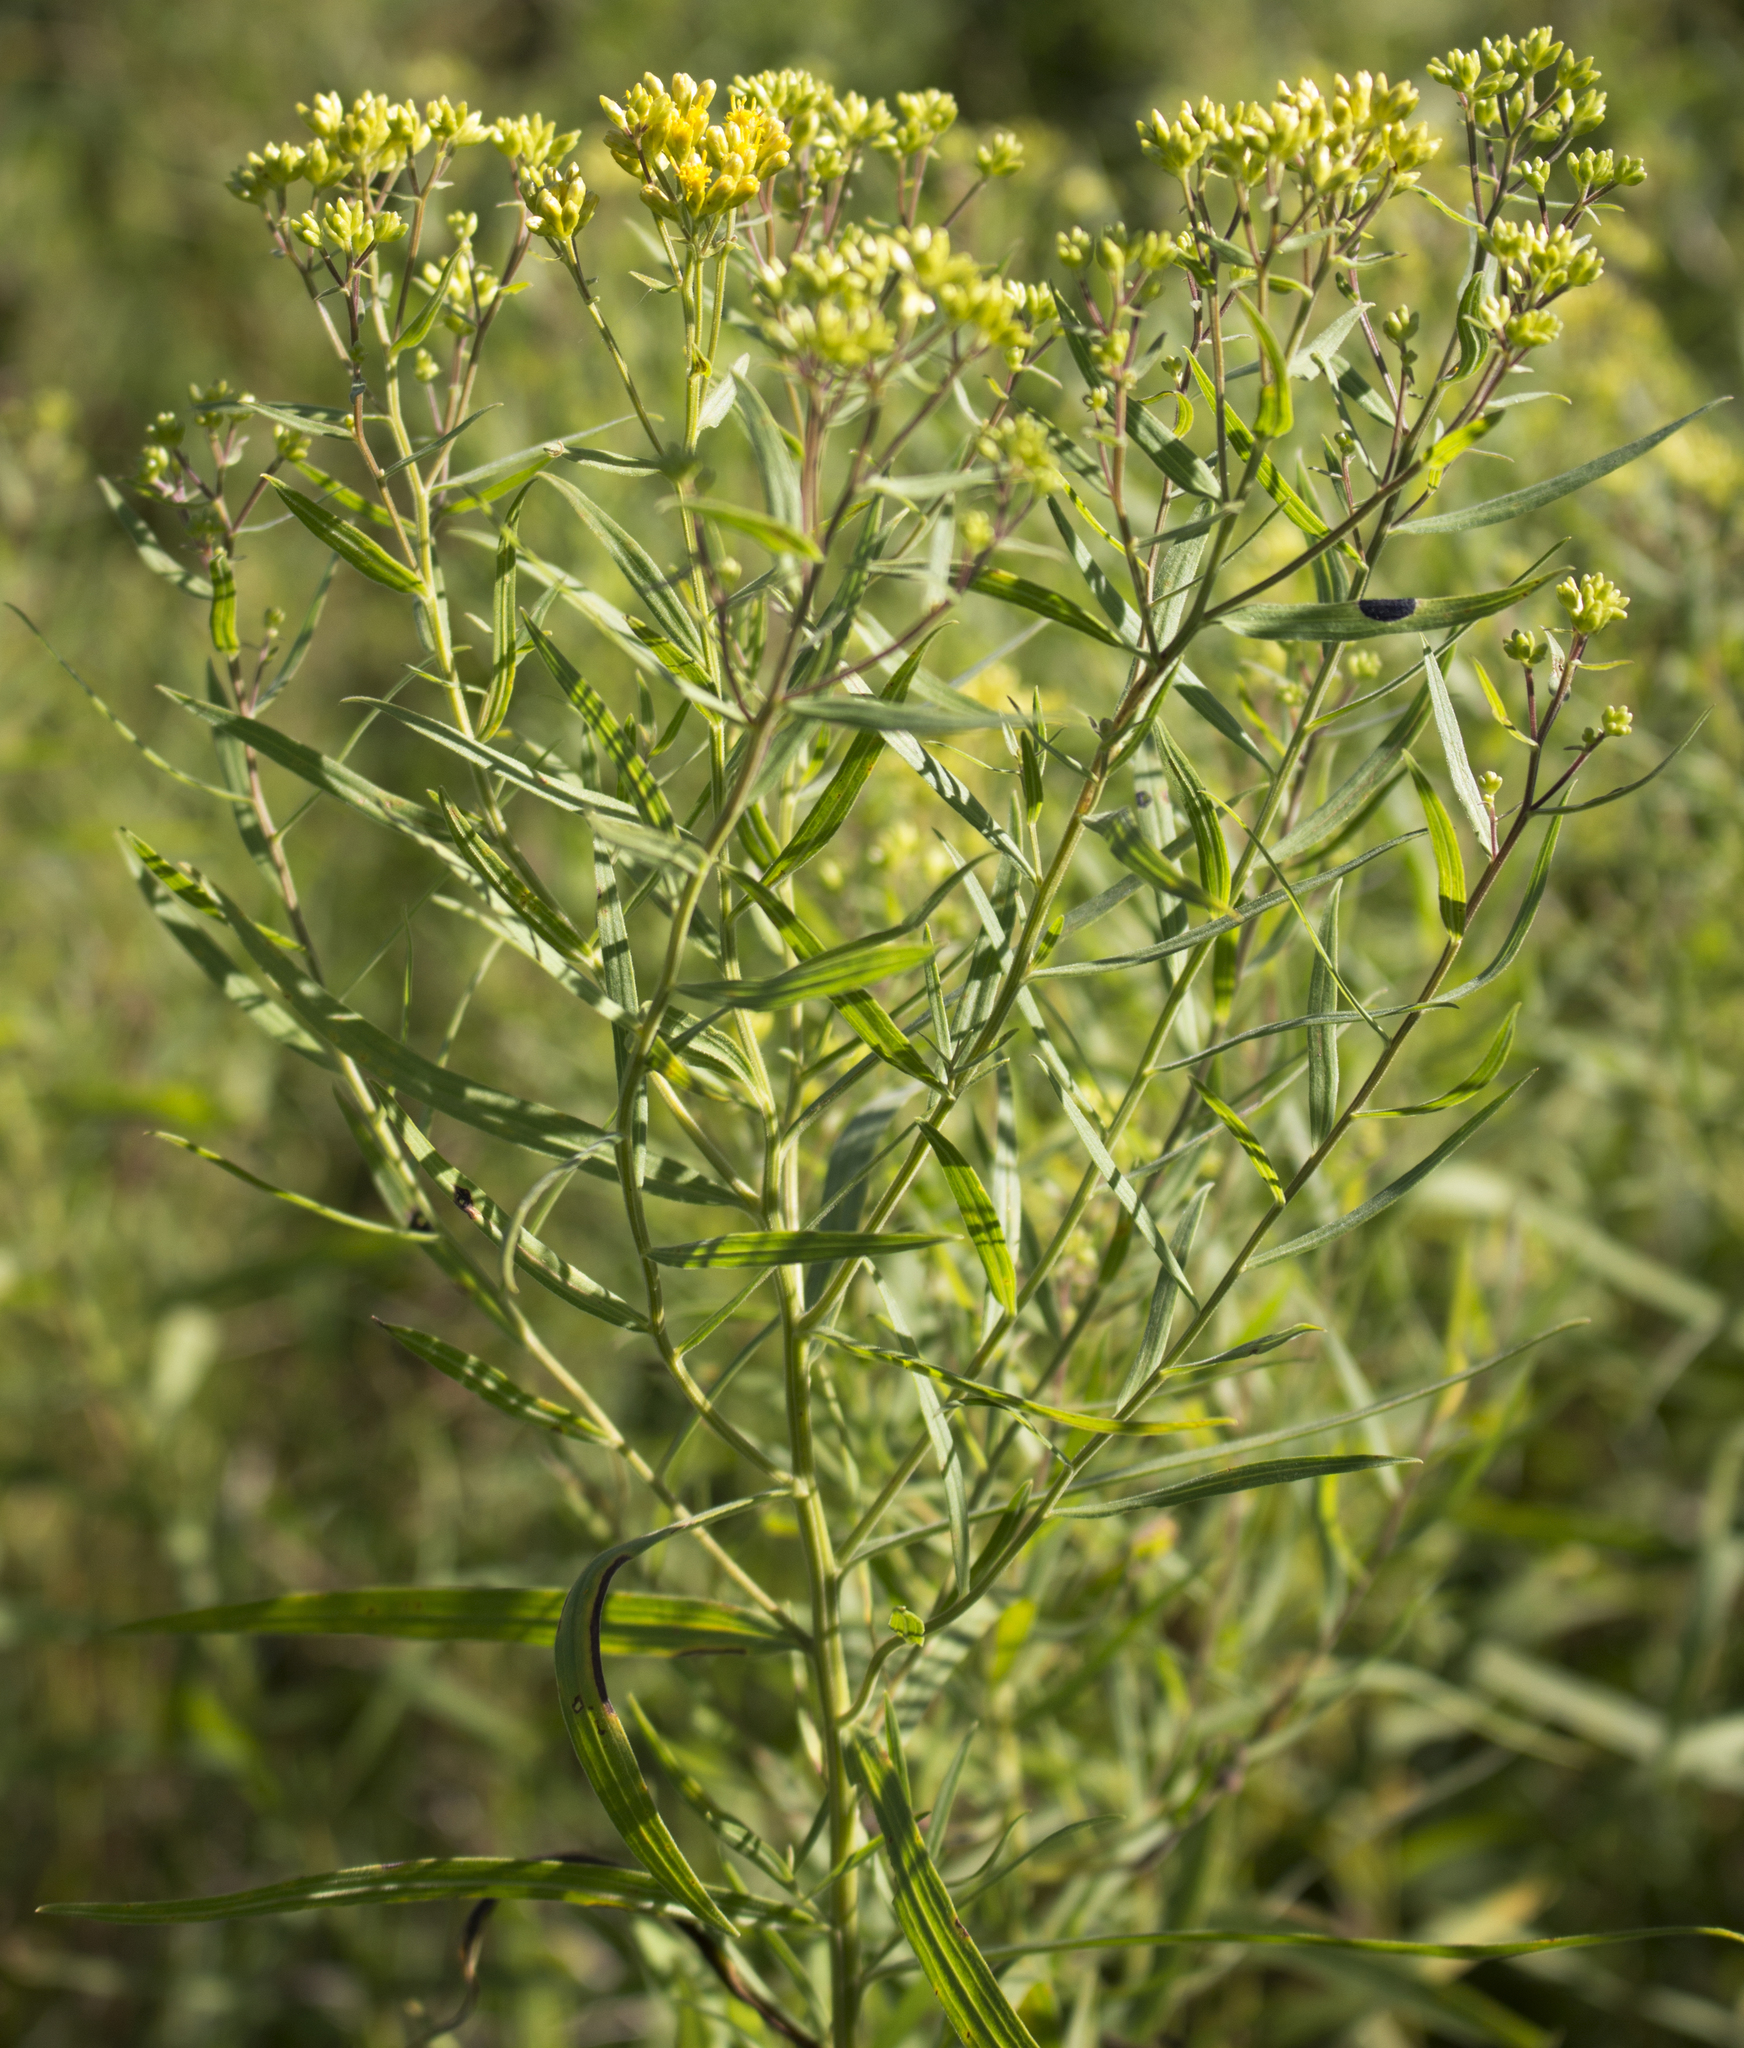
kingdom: Plantae
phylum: Tracheophyta
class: Magnoliopsida
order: Asterales
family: Asteraceae
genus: Euthamia
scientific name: Euthamia graminifolia
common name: Common goldentop
